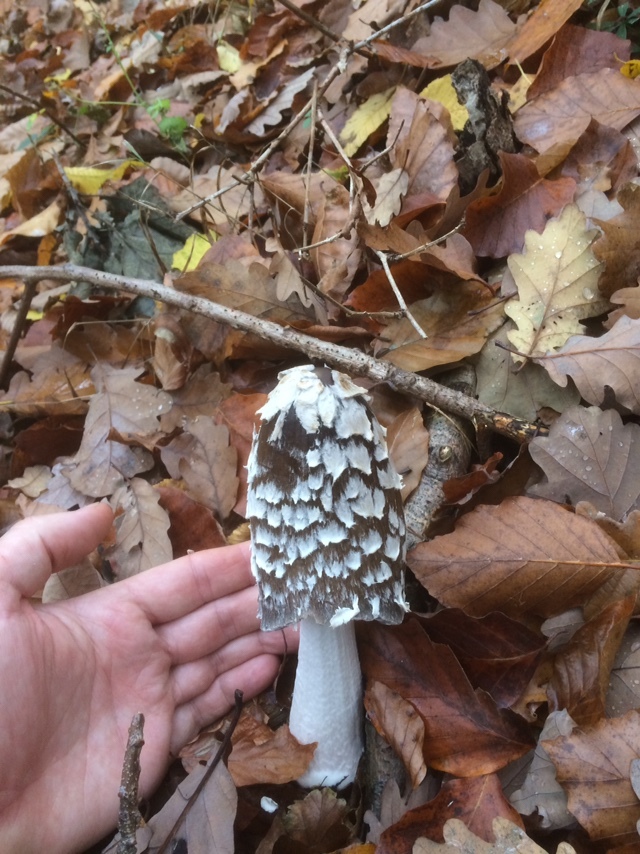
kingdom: Fungi
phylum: Basidiomycota
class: Agaricomycetes
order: Agaricales
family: Psathyrellaceae
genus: Coprinopsis
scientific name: Coprinopsis picacea
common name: Magpie inkcap
